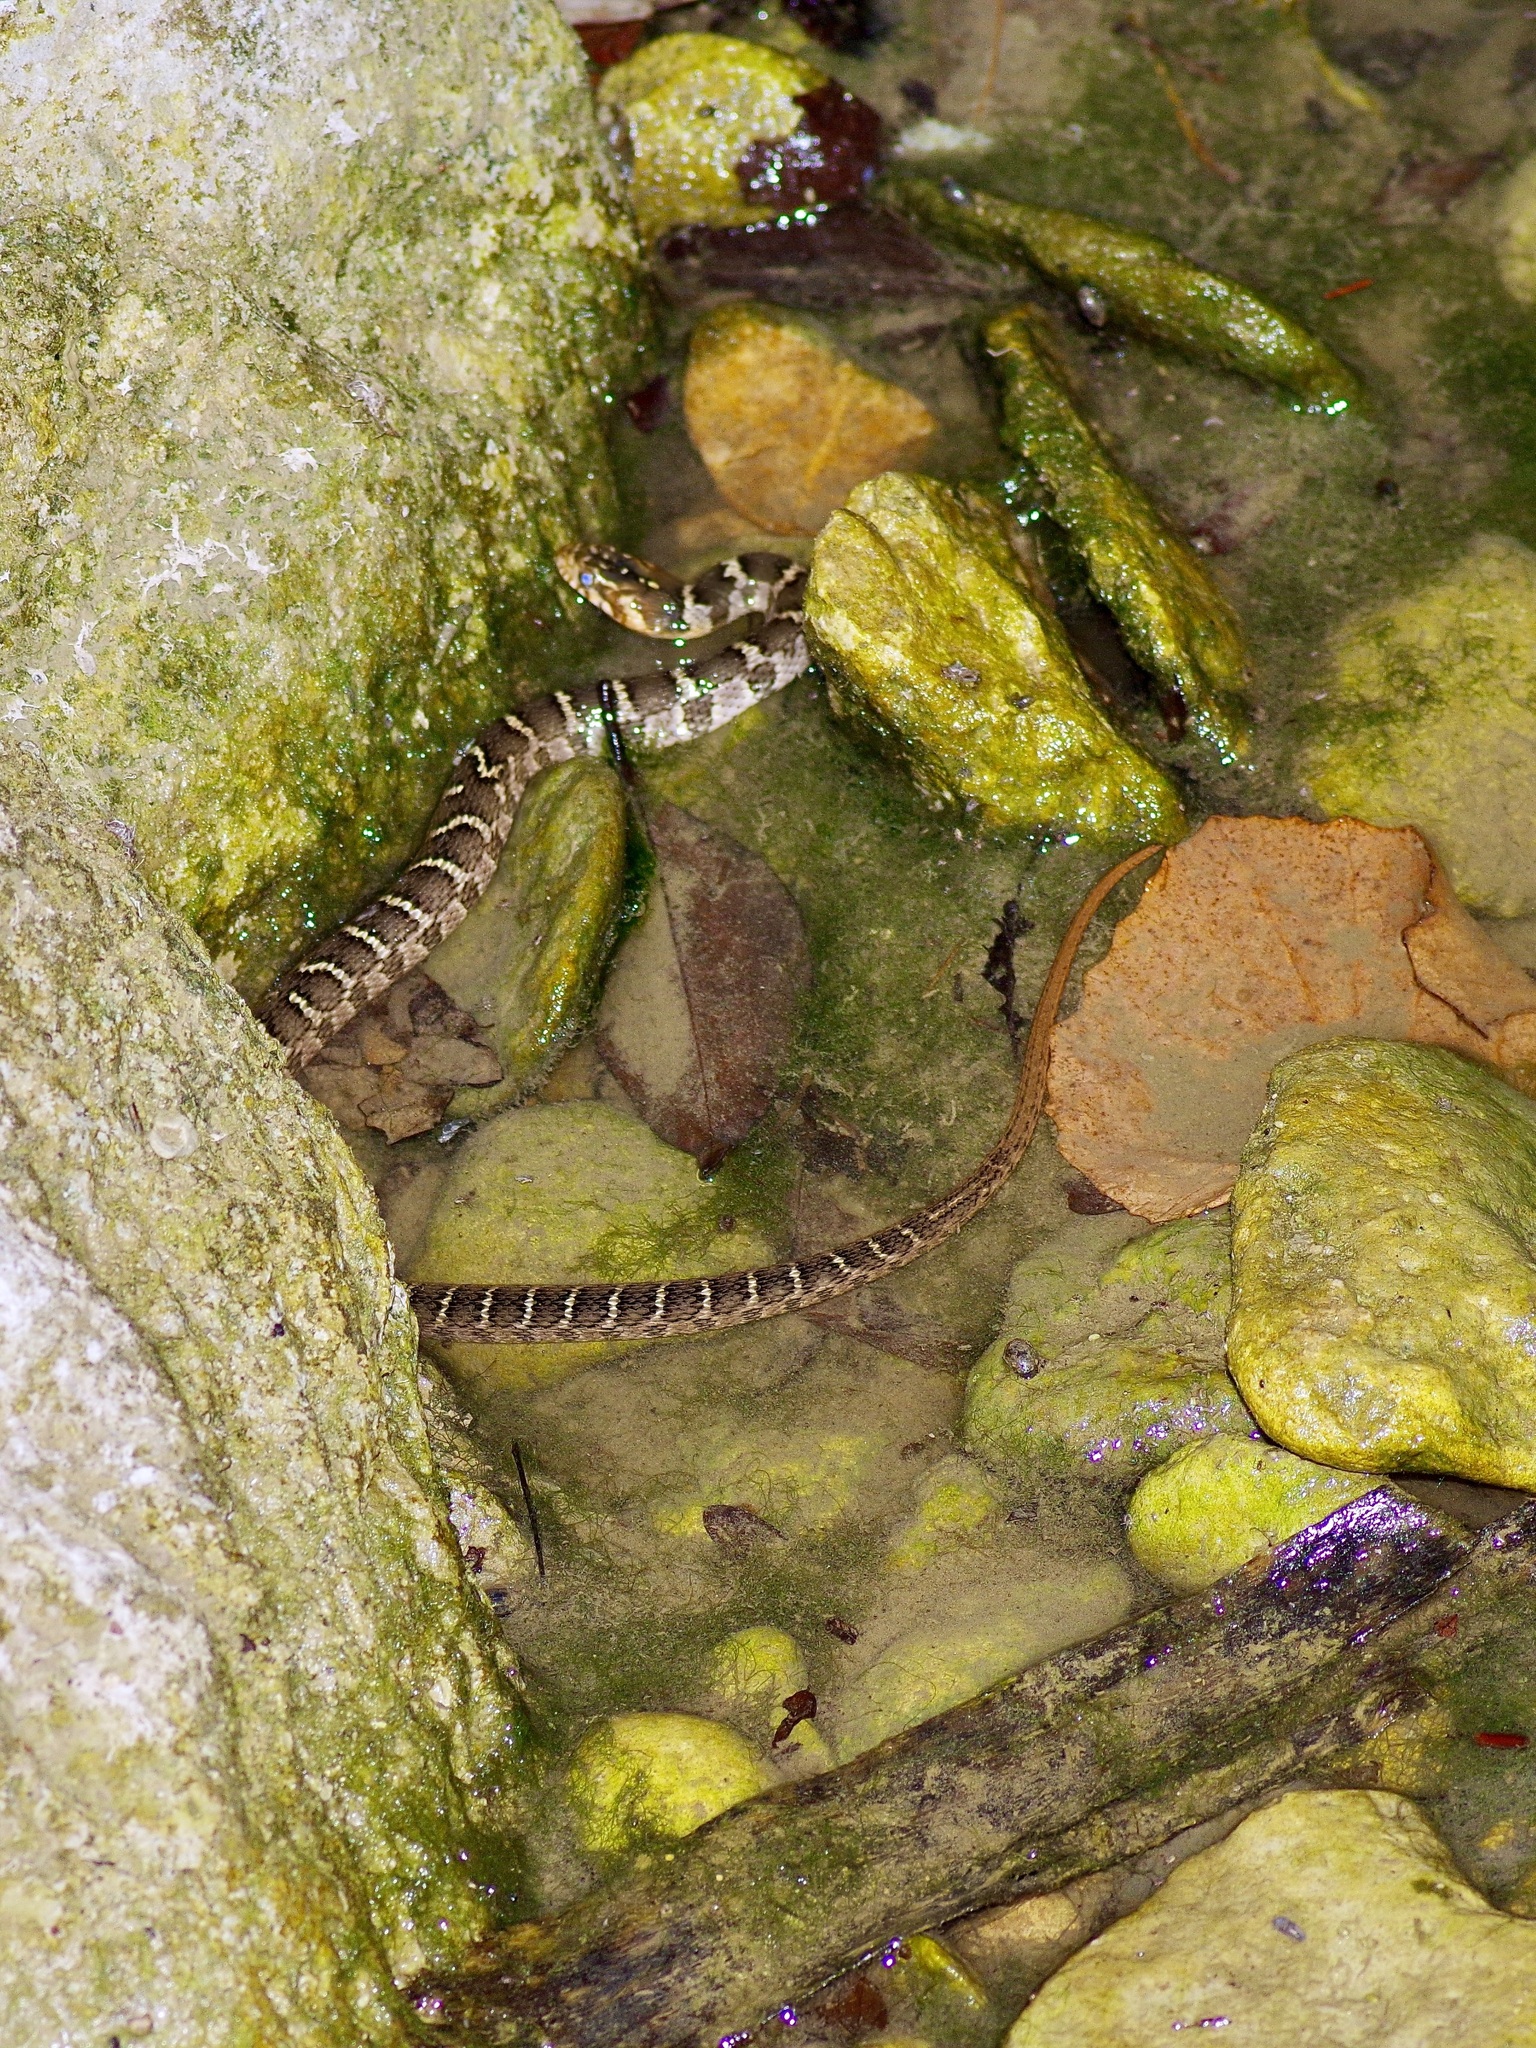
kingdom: Animalia
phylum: Chordata
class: Squamata
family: Colubridae
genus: Nerodia
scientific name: Nerodia erythrogaster
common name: Plainbelly water snake
